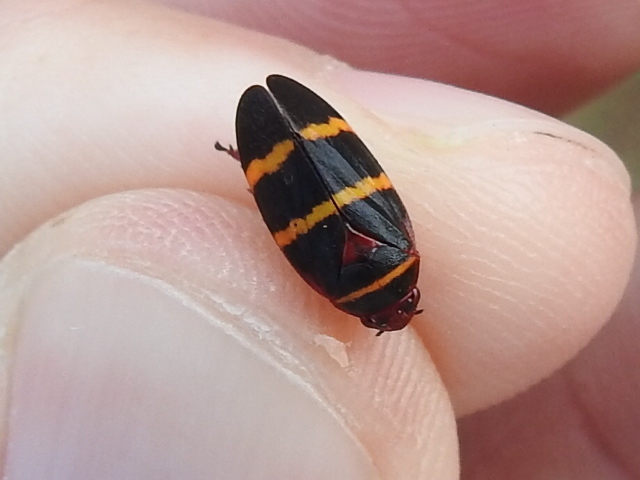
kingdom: Animalia
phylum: Arthropoda
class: Insecta
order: Hemiptera
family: Cercopidae
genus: Prosapia
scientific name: Prosapia bicincta
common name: Twolined spittlebug
